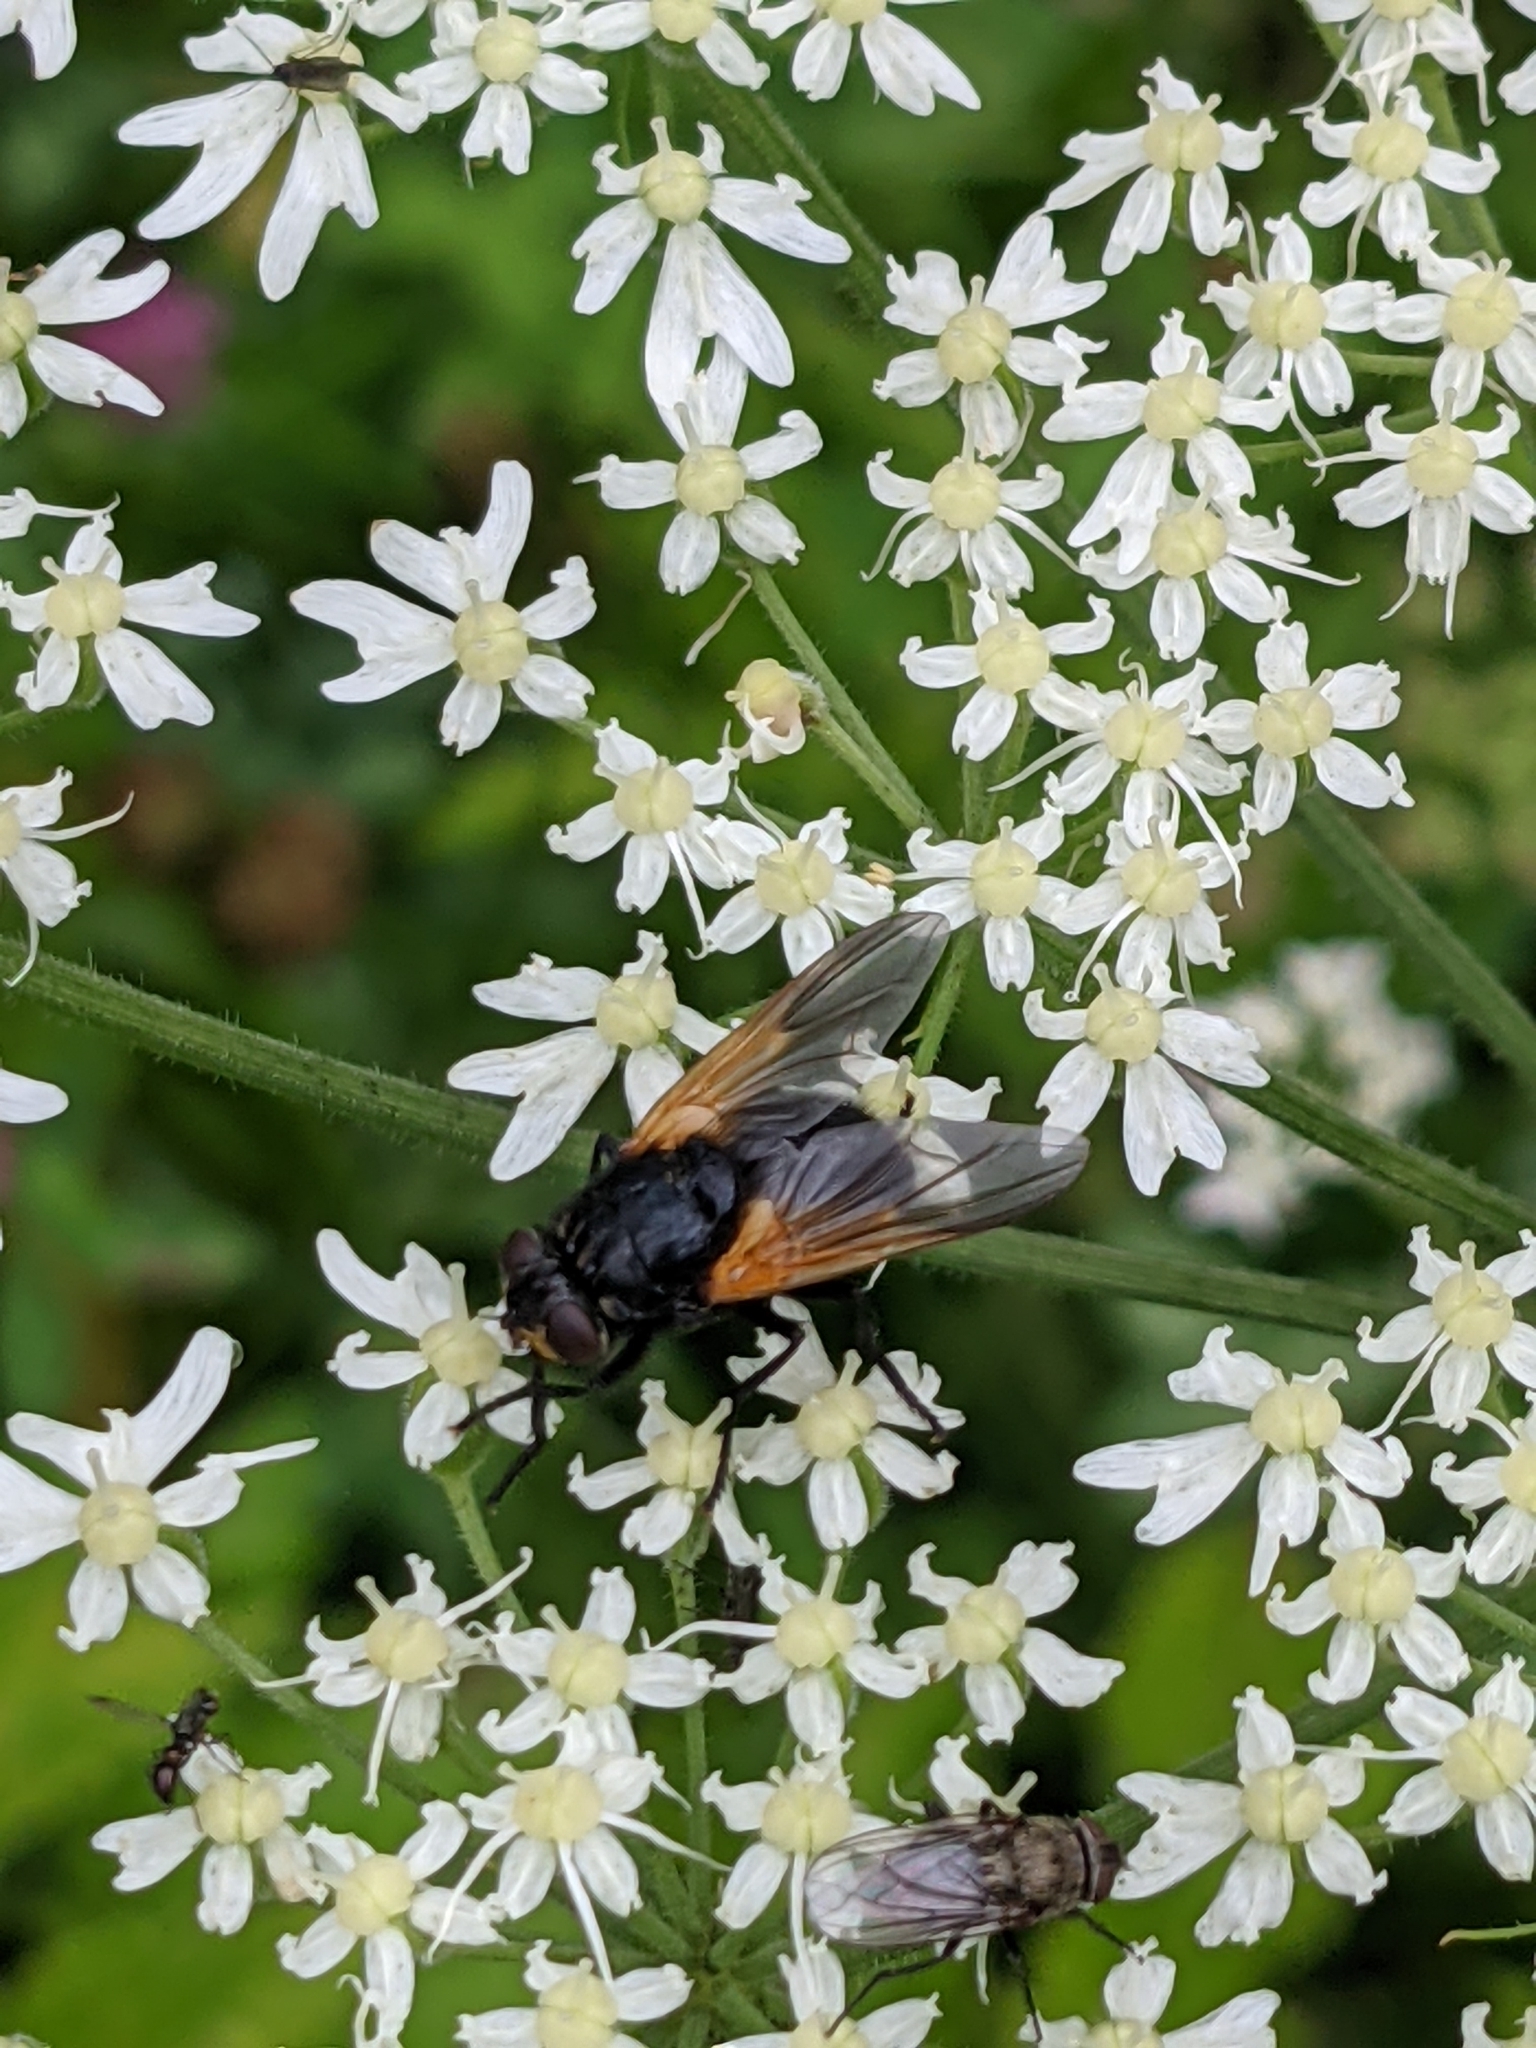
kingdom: Animalia
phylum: Arthropoda
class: Insecta
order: Diptera
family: Muscidae
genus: Mesembrina
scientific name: Mesembrina meridiana
